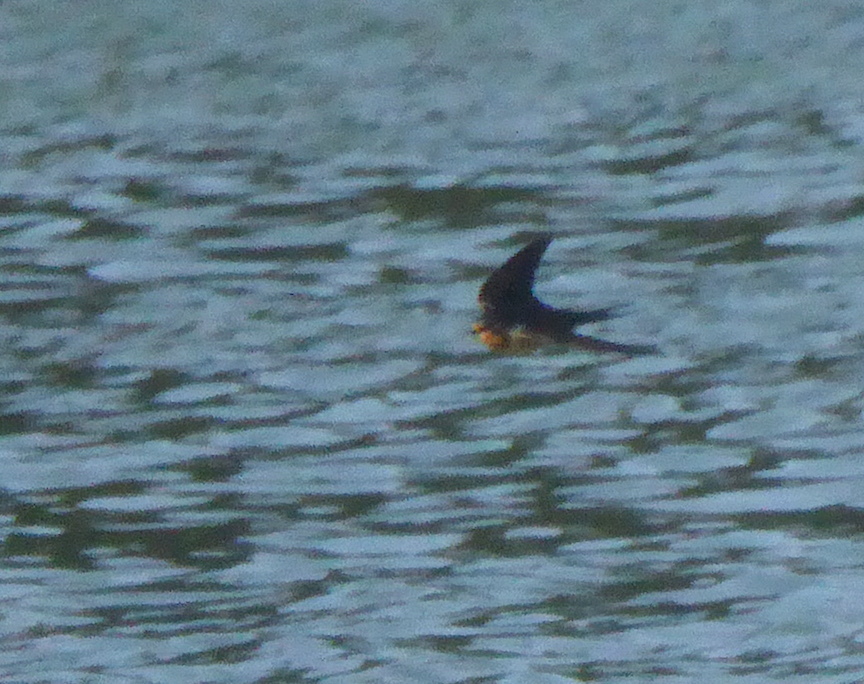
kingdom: Animalia
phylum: Chordata
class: Aves
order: Passeriformes
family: Hirundinidae
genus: Hirundo
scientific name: Hirundo rustica
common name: Barn swallow
